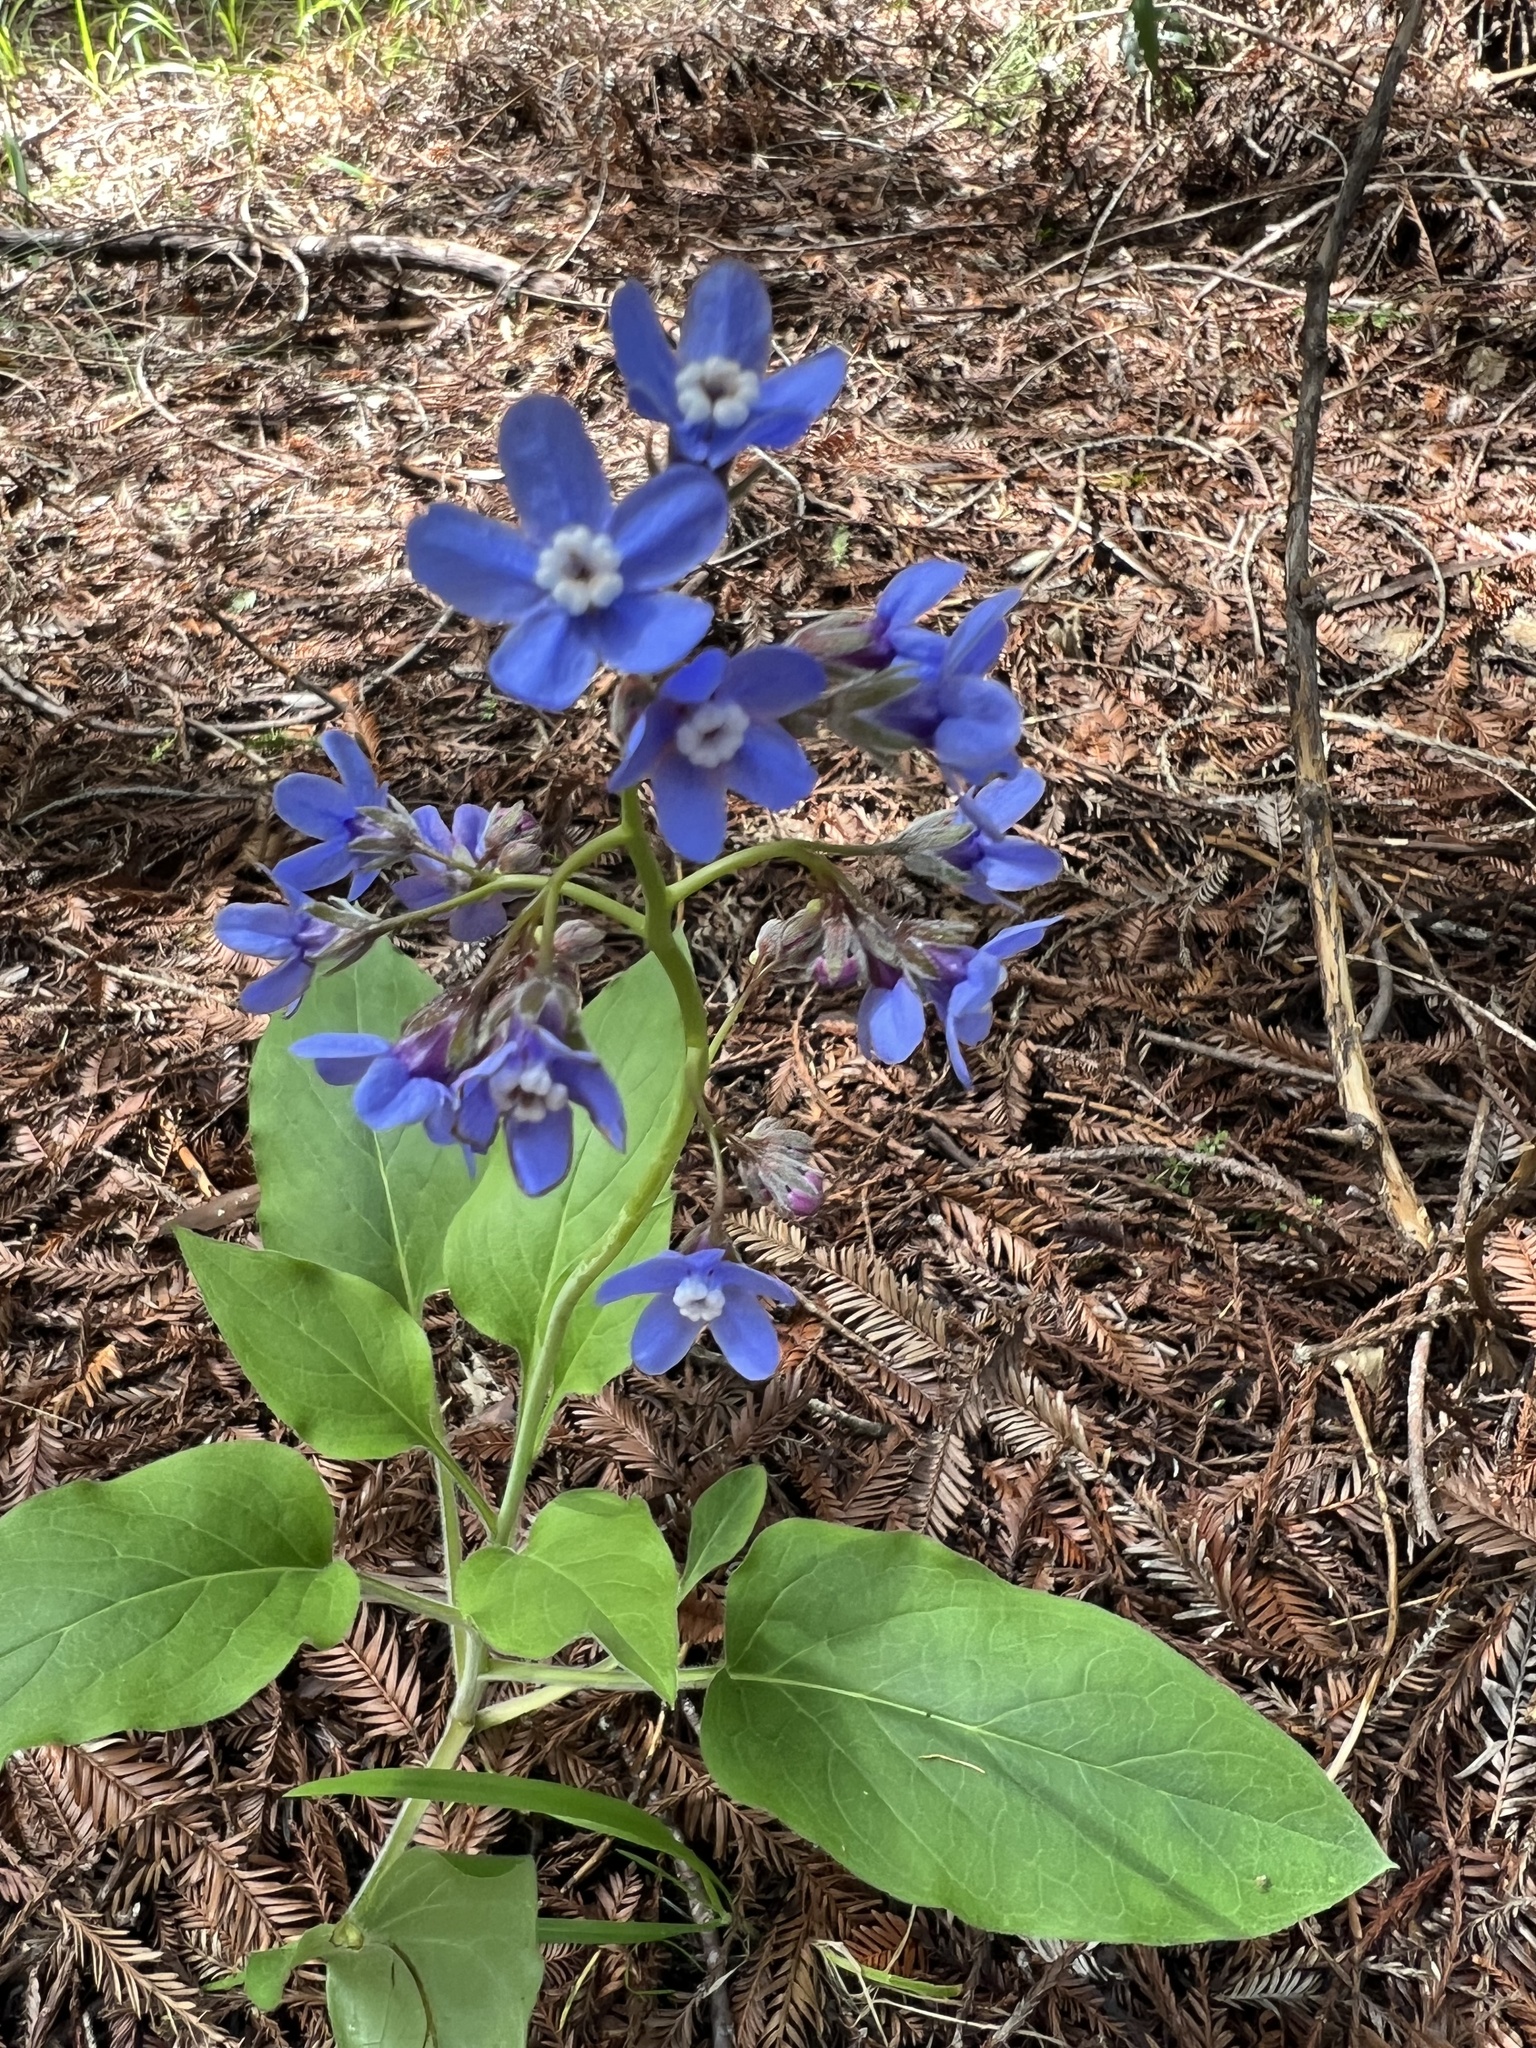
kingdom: Plantae
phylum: Tracheophyta
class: Magnoliopsida
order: Boraginales
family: Boraginaceae
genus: Adelinia
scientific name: Adelinia grande
